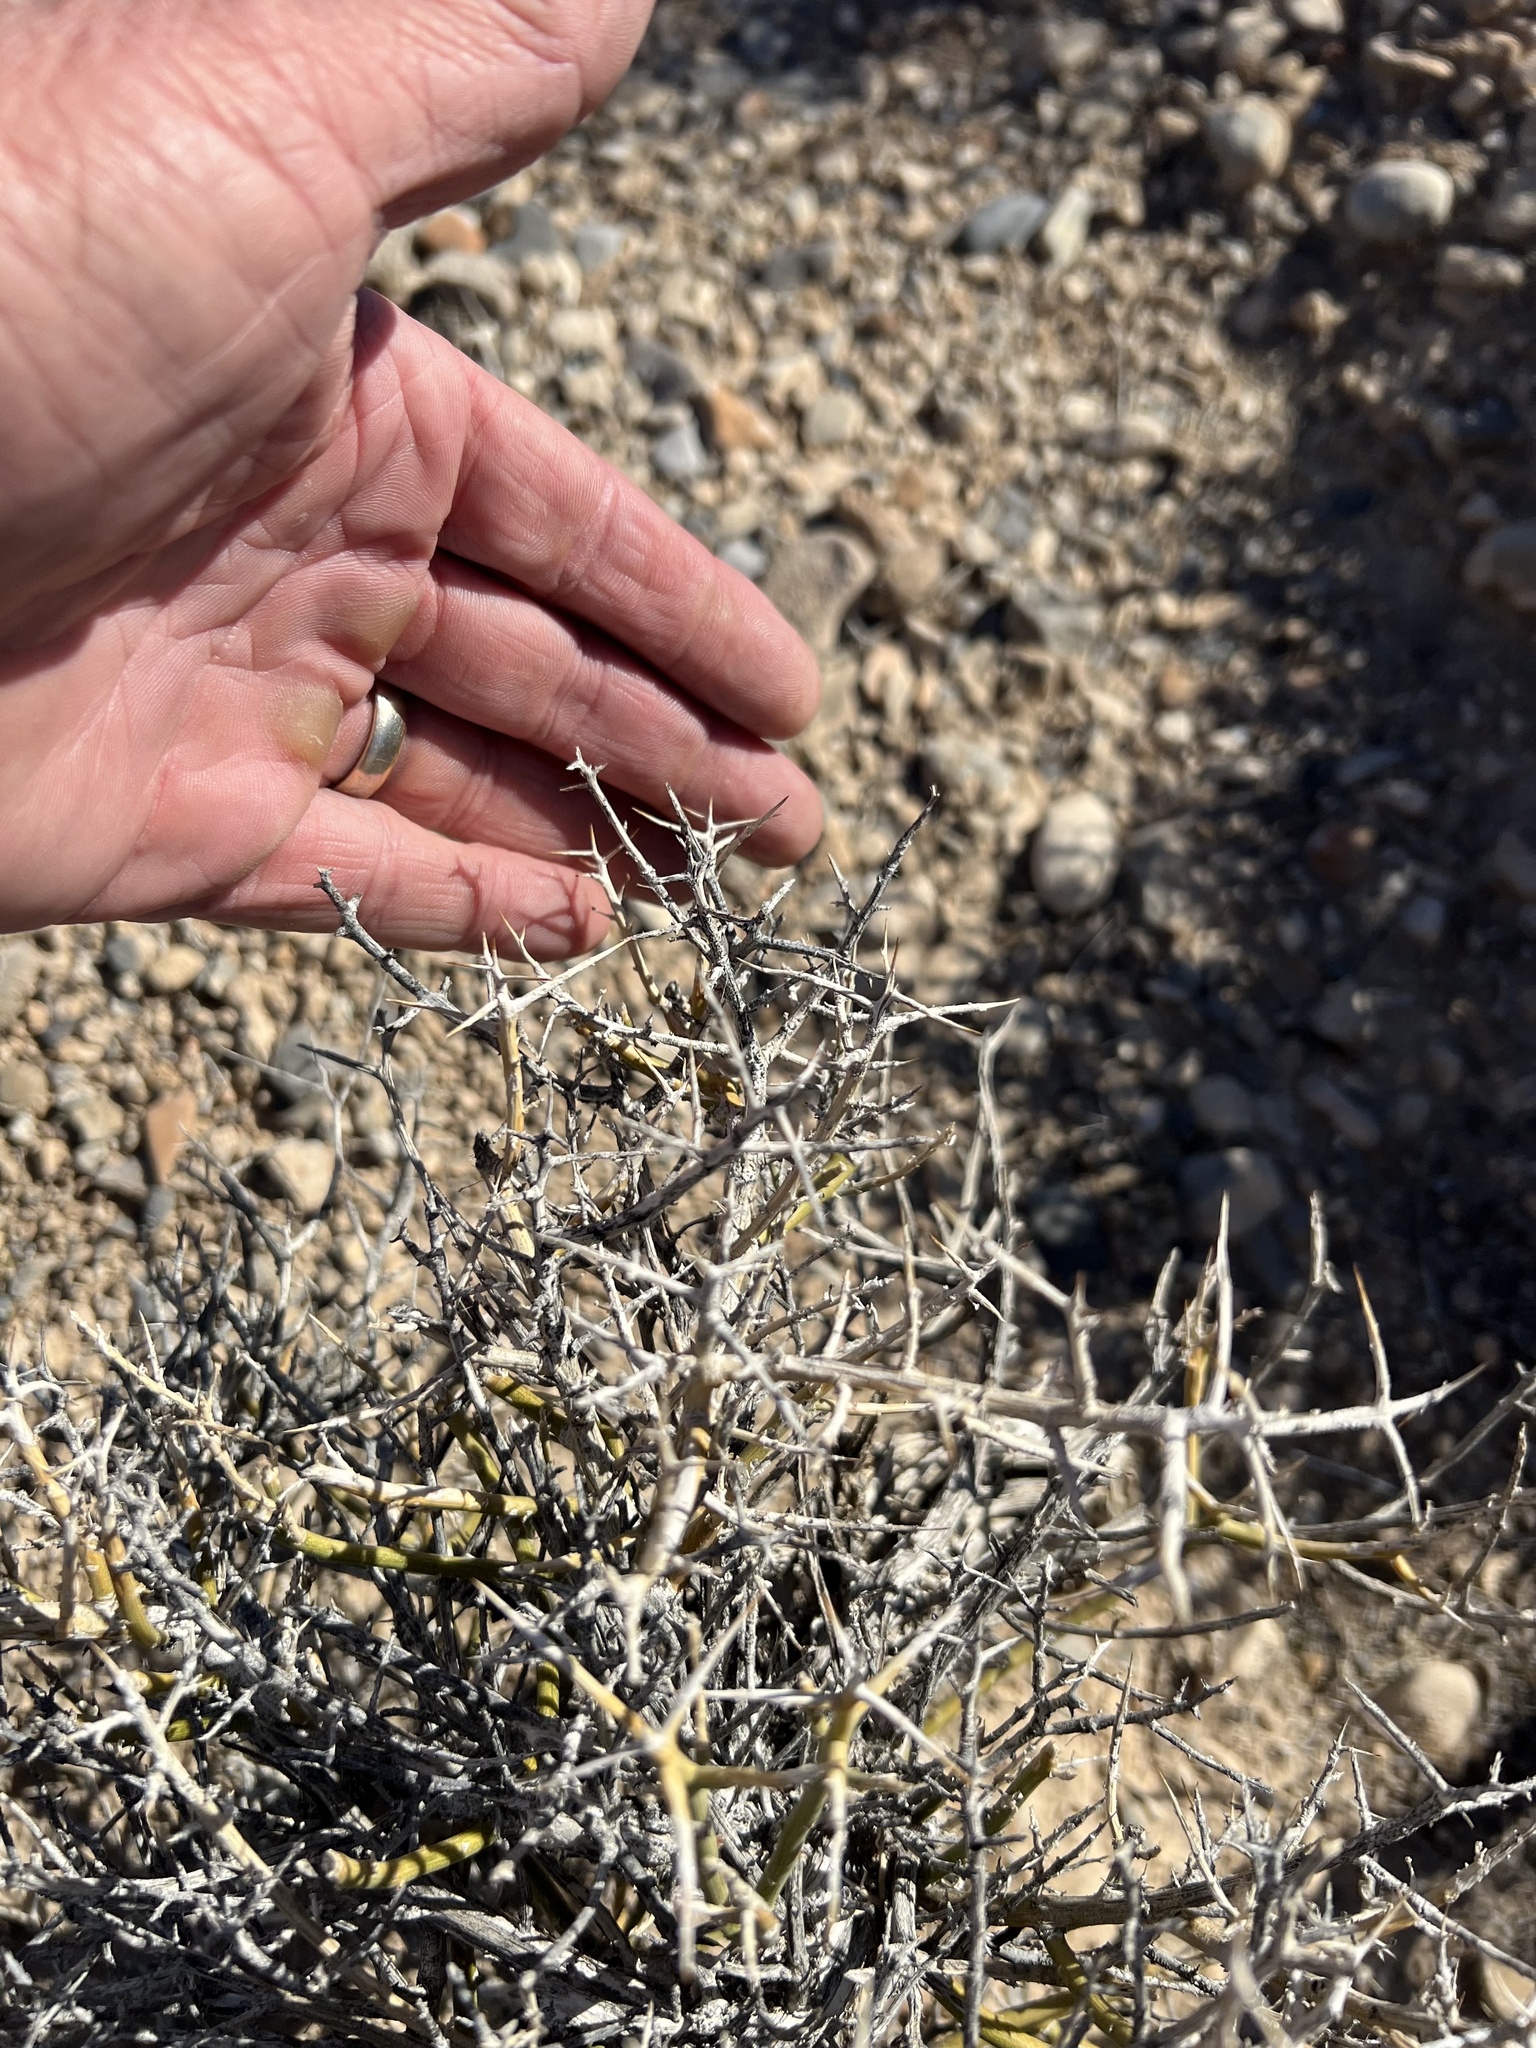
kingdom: Plantae
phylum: Tracheophyta
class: Magnoliopsida
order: Lamiales
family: Oleaceae
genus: Menodora
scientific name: Menodora spinescens
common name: Spiny menodora
